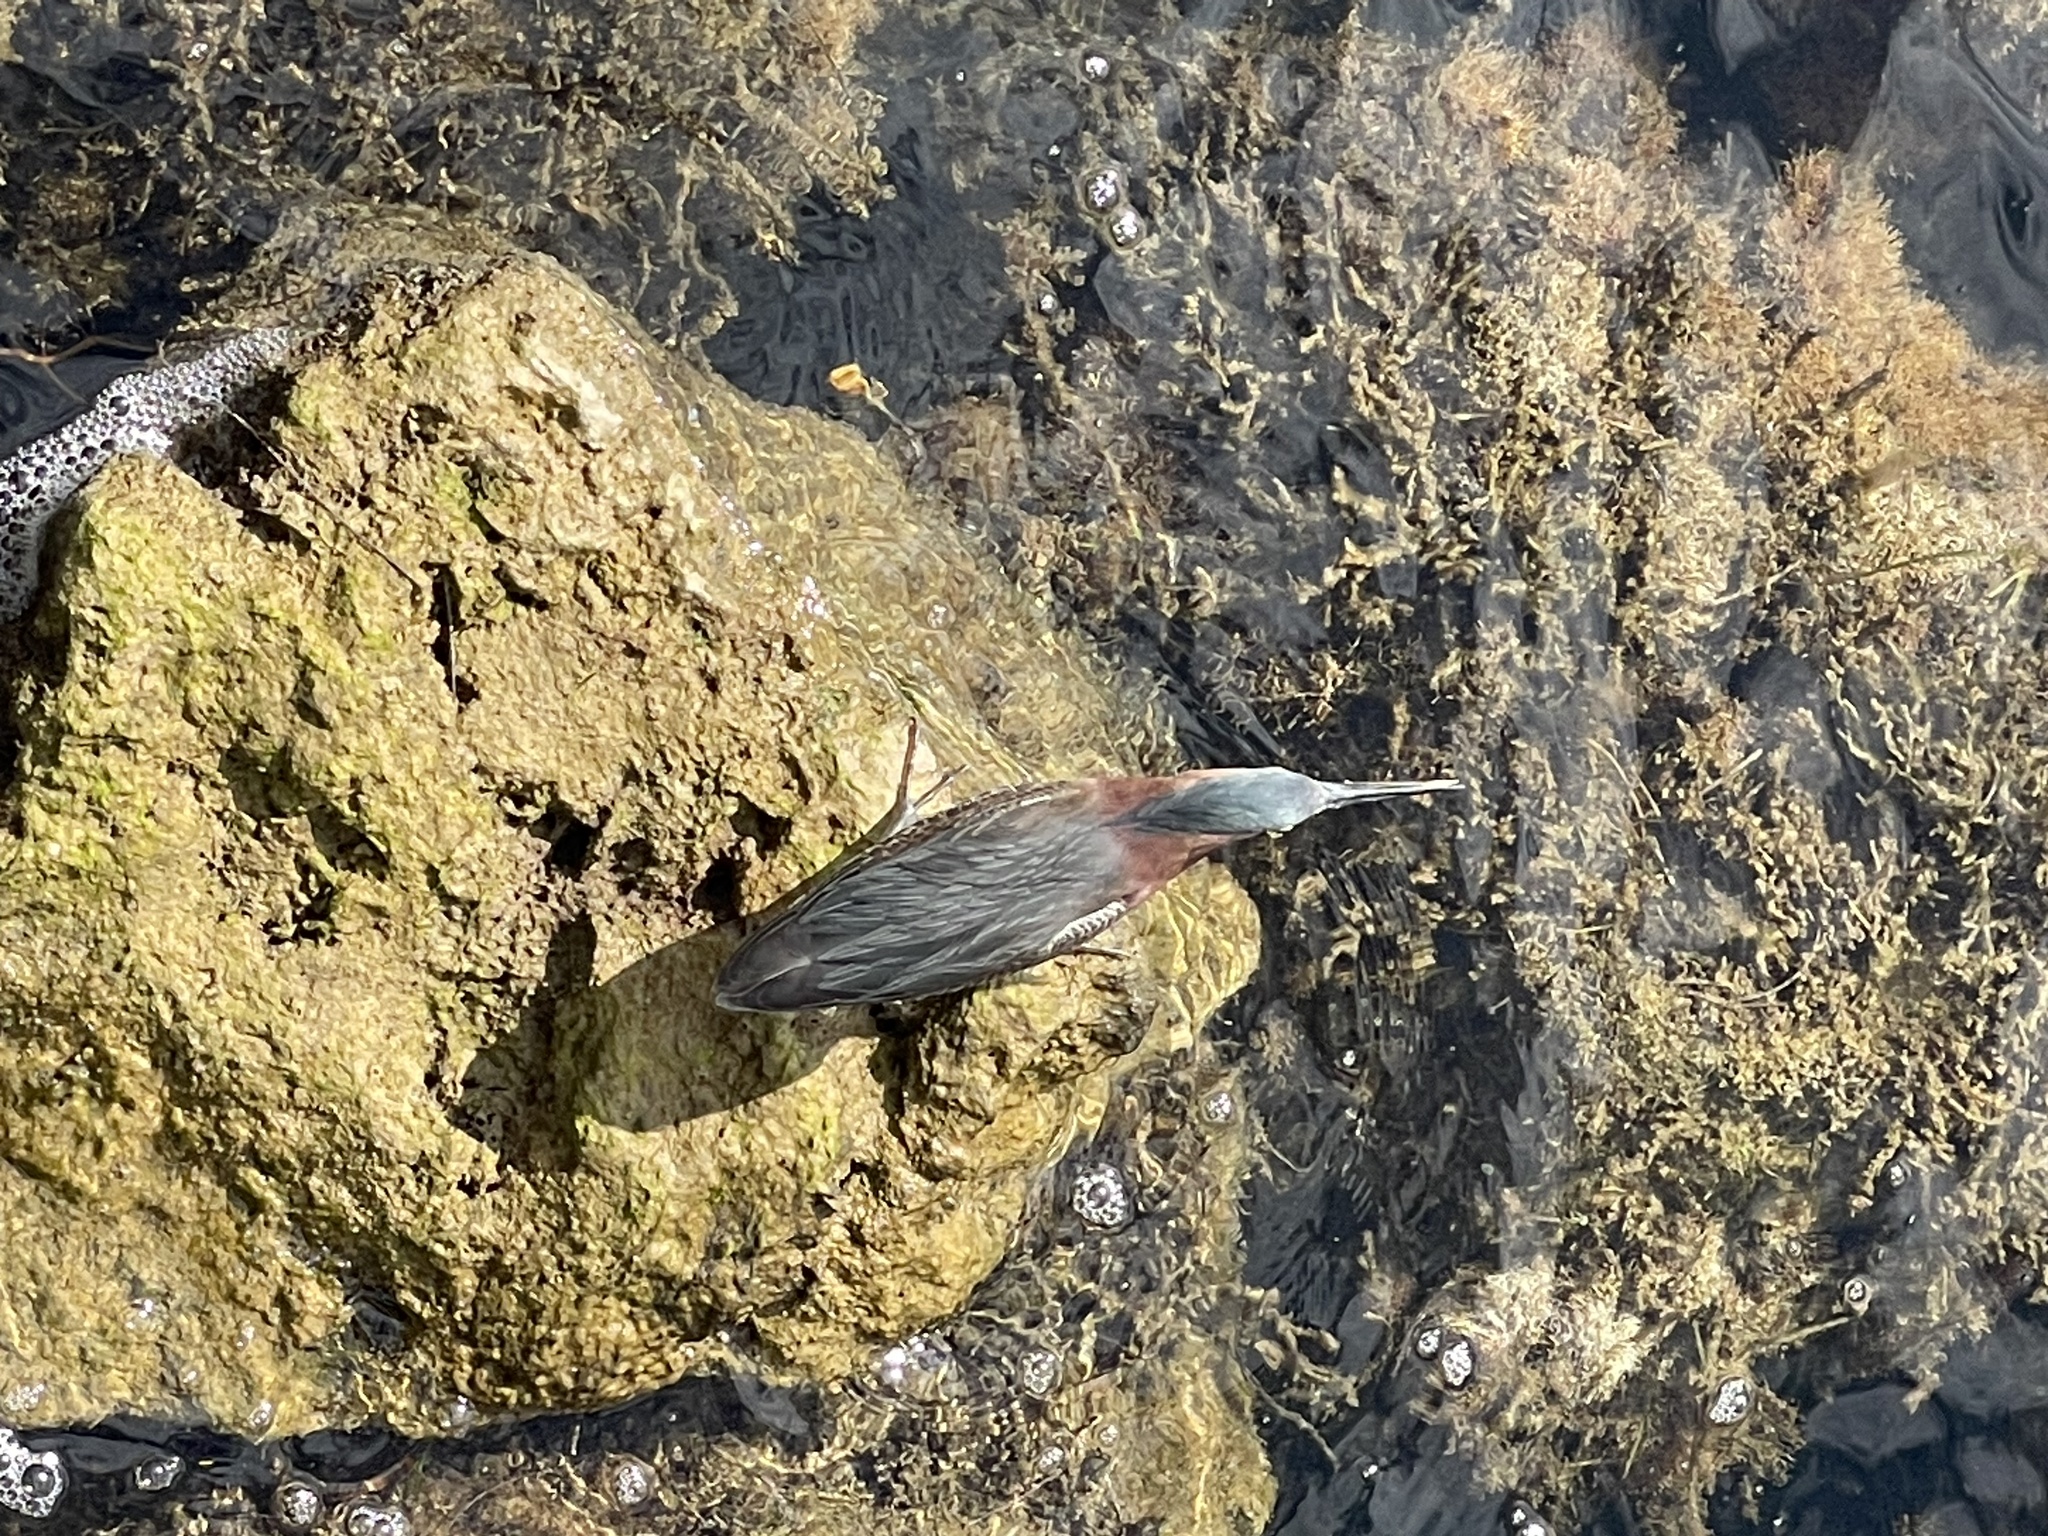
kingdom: Animalia
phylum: Chordata
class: Aves
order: Pelecaniformes
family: Ardeidae
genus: Butorides
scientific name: Butorides virescens
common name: Green heron
